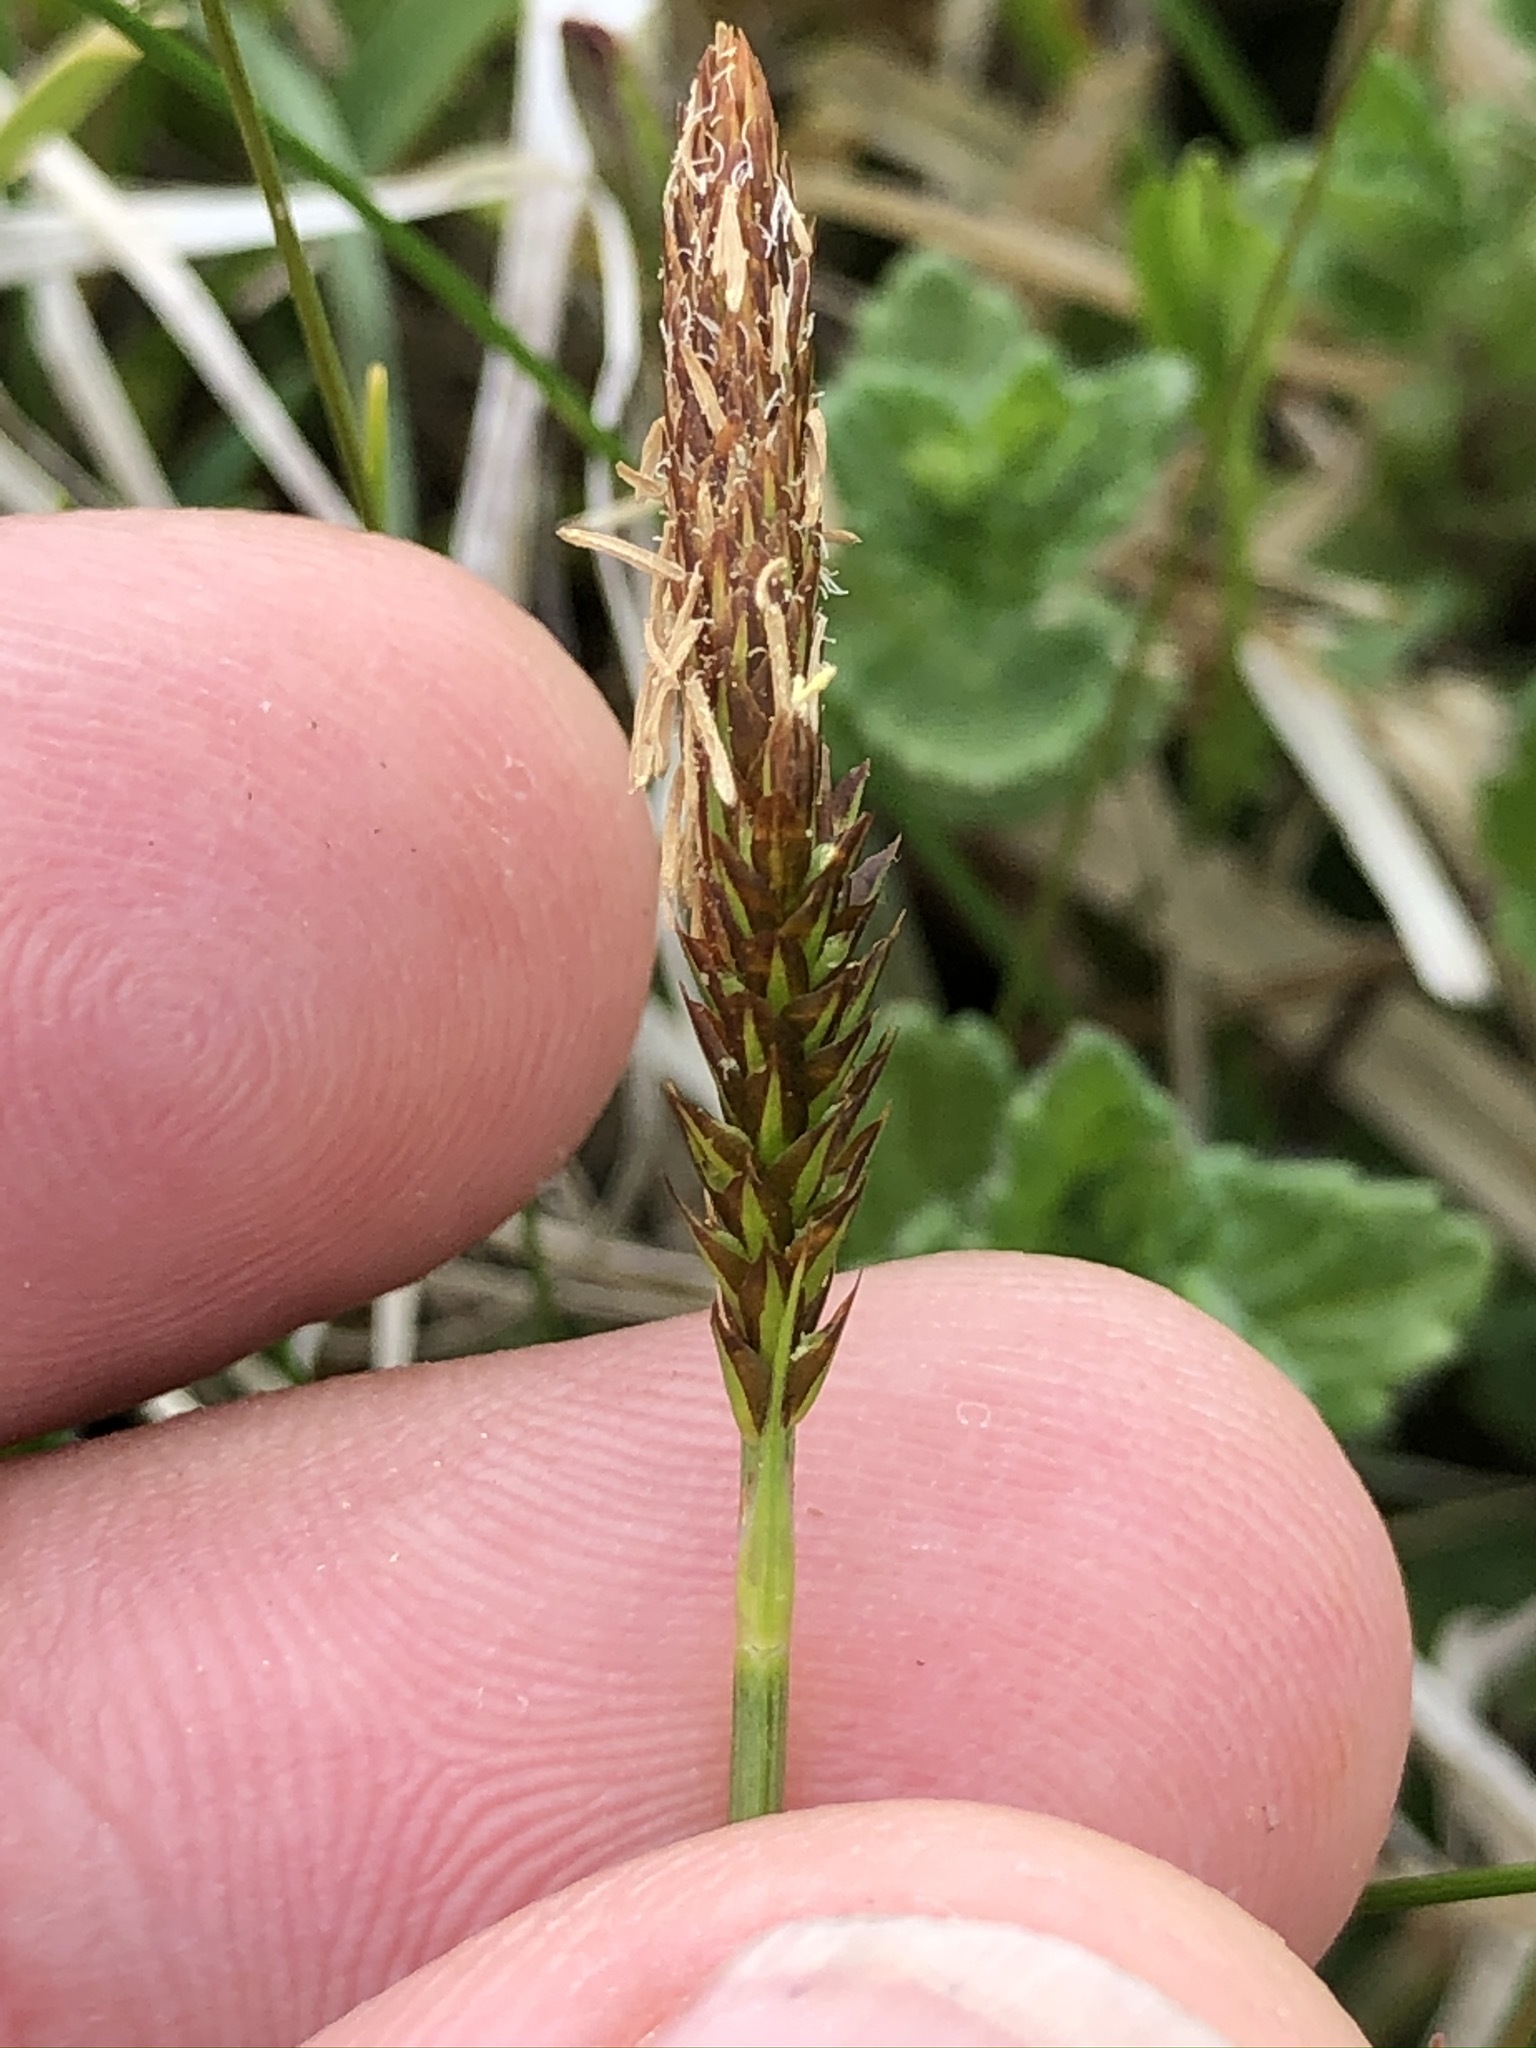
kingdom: Plantae
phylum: Tracheophyta
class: Liliopsida
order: Poales
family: Cyperaceae
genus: Carex
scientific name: Carex caryophyllea
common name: Spring sedge
